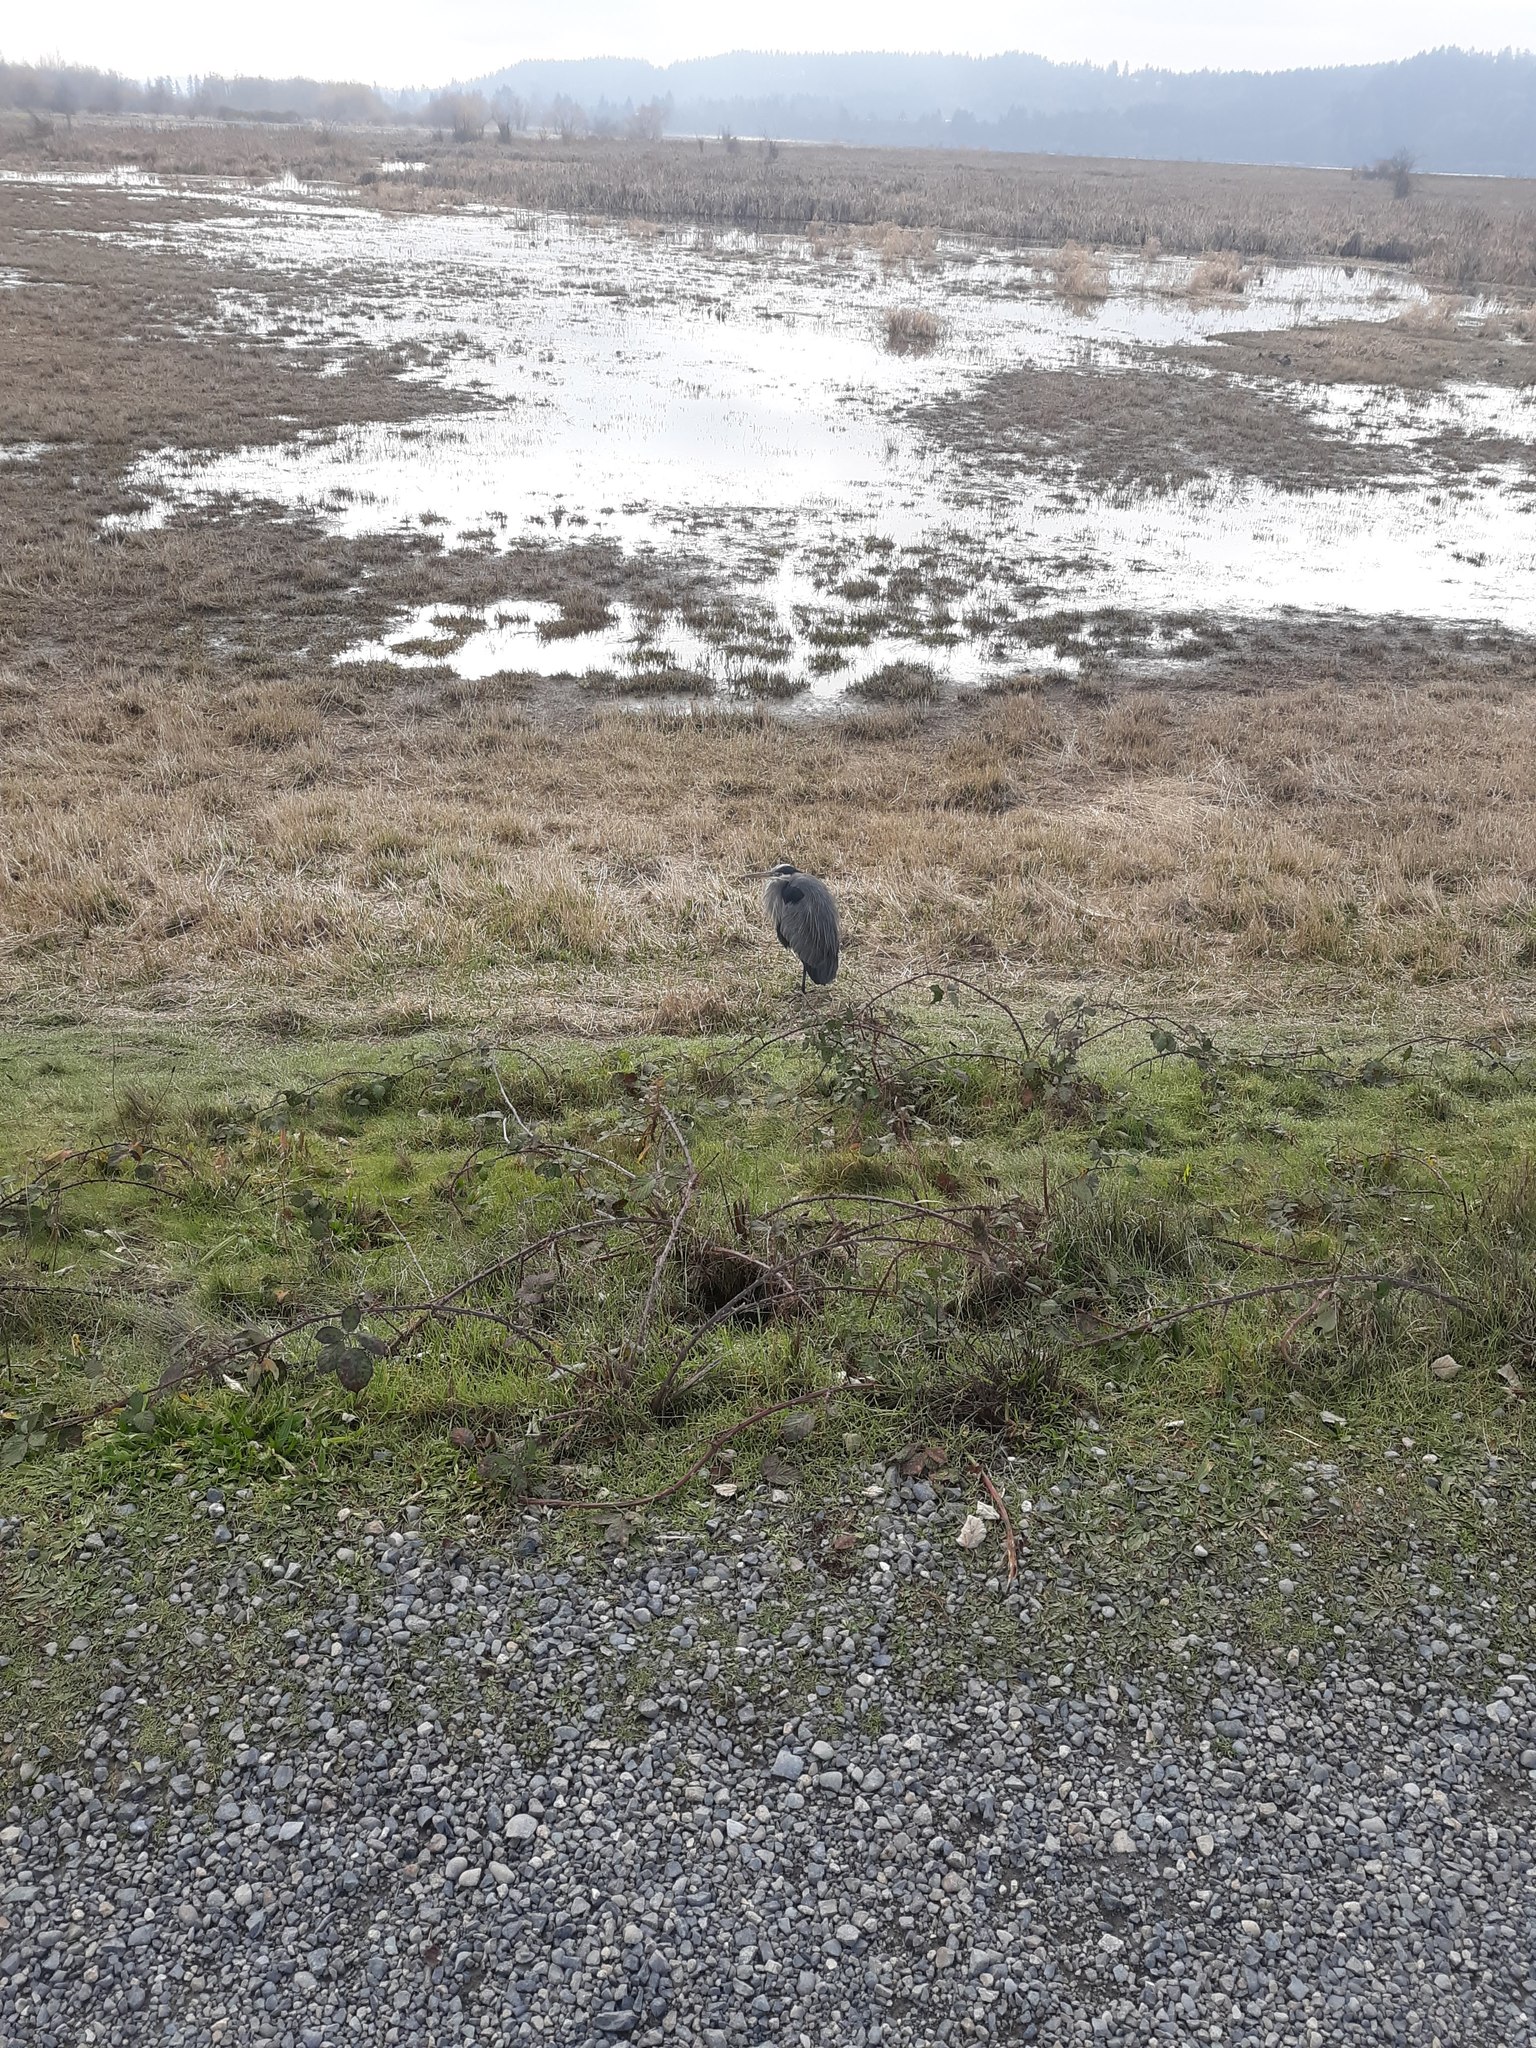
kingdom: Animalia
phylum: Chordata
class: Aves
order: Pelecaniformes
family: Ardeidae
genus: Ardea
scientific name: Ardea herodias
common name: Great blue heron
